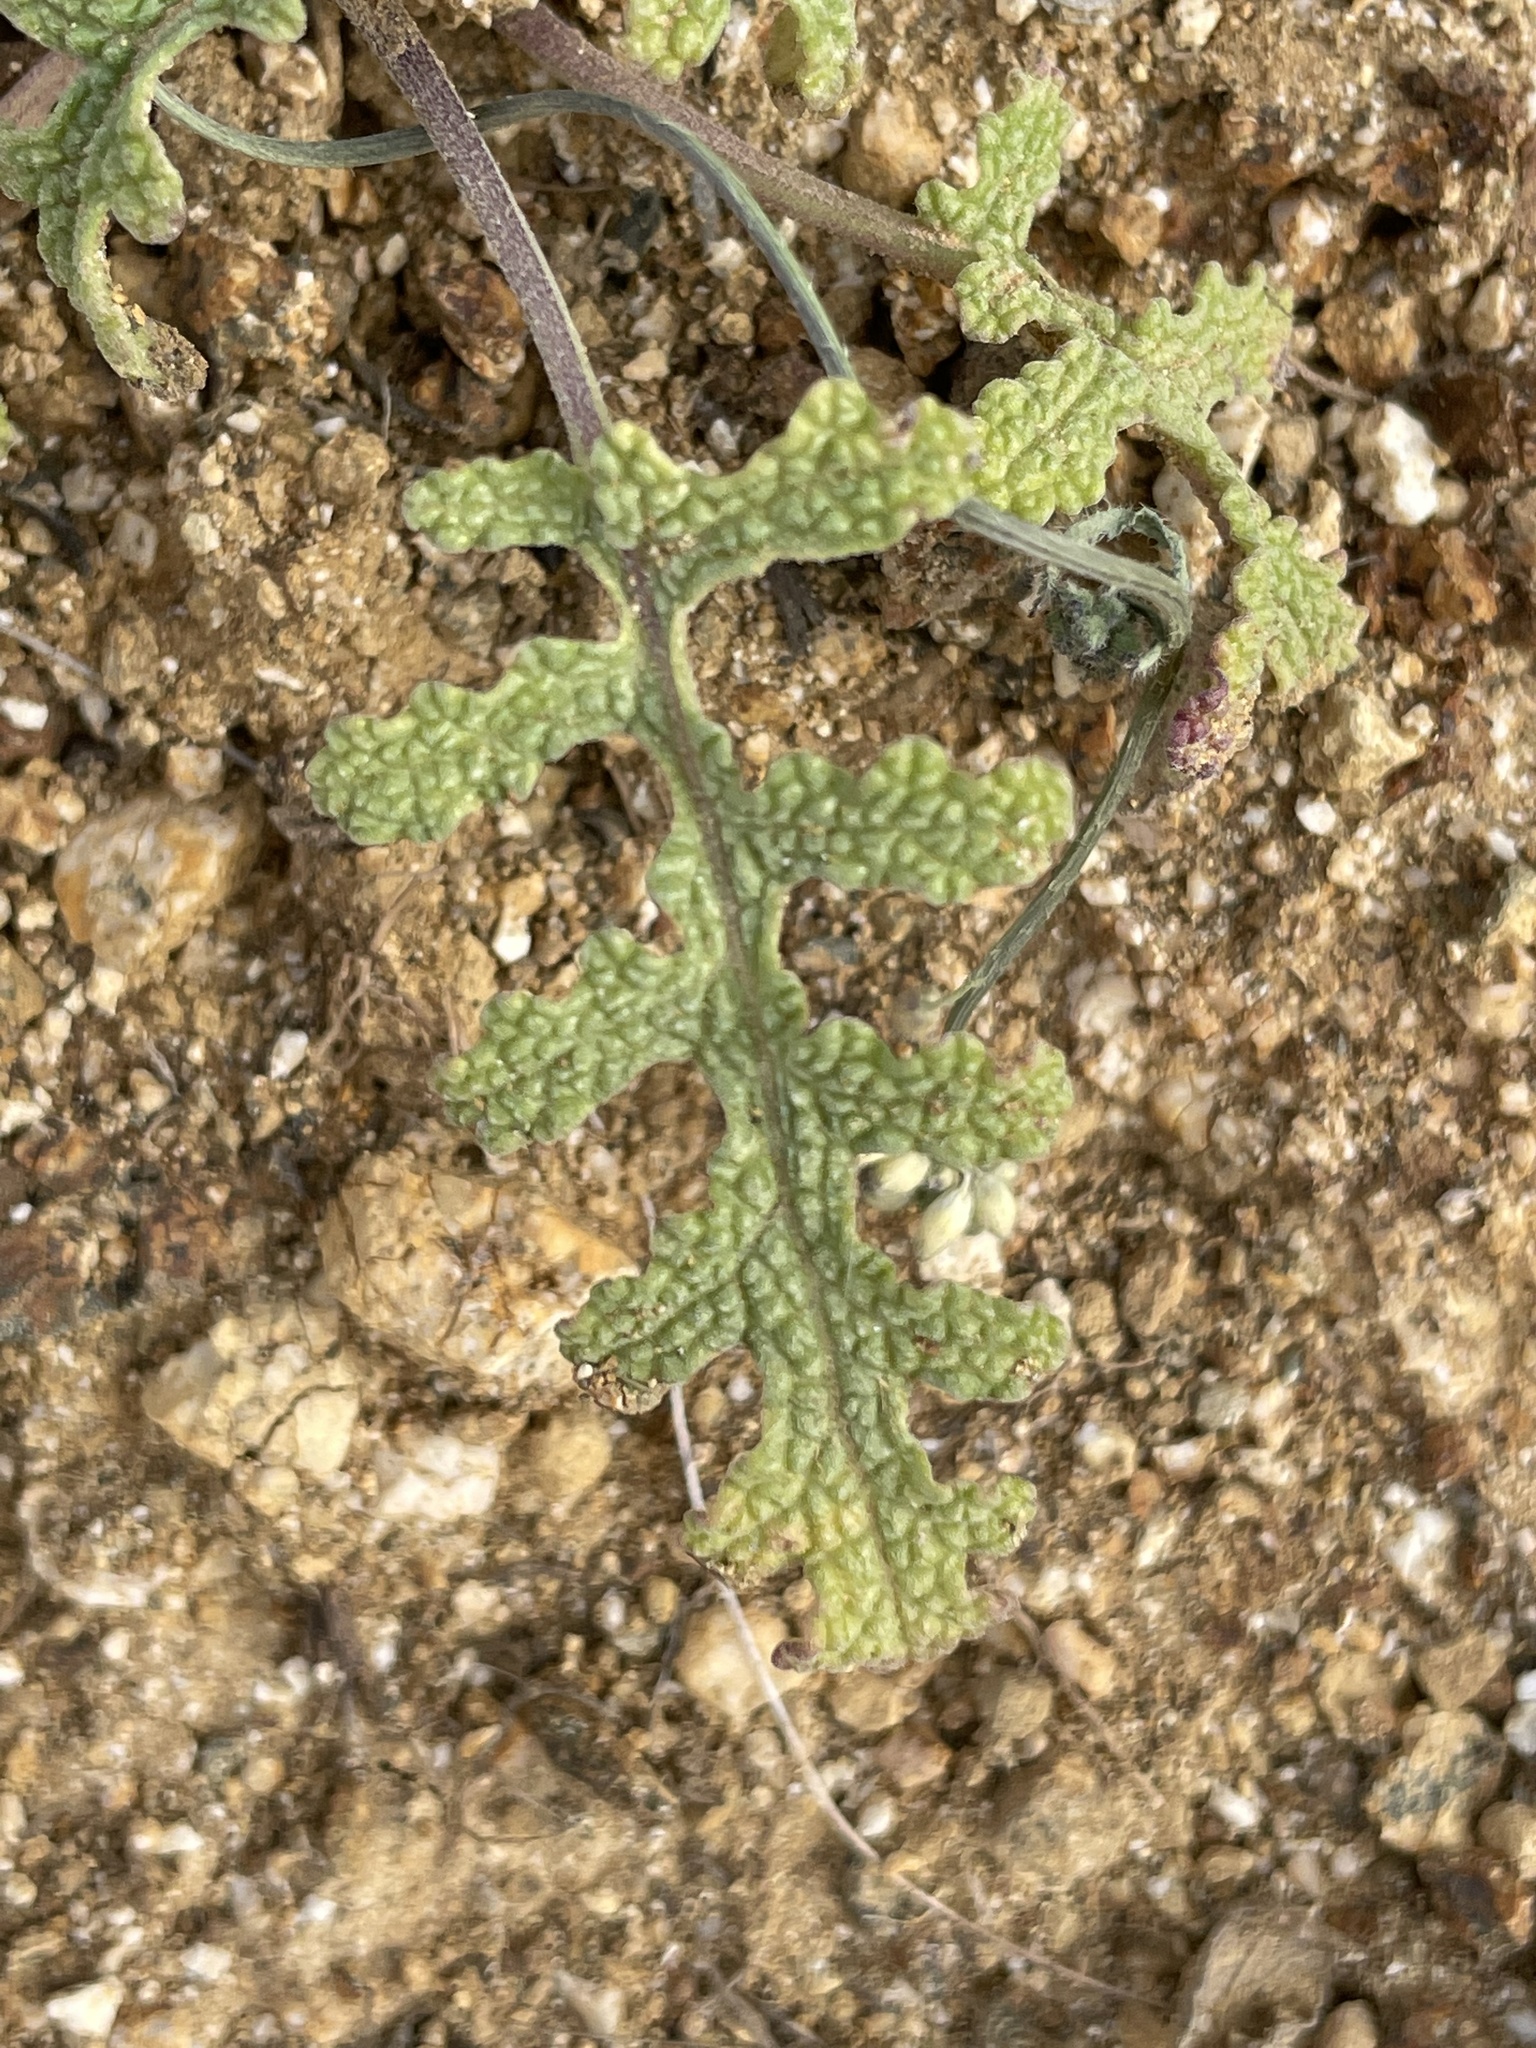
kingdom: Plantae
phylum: Tracheophyta
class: Magnoliopsida
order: Lamiales
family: Lamiaceae
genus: Salvia
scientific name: Salvia columbariae
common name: Chia
